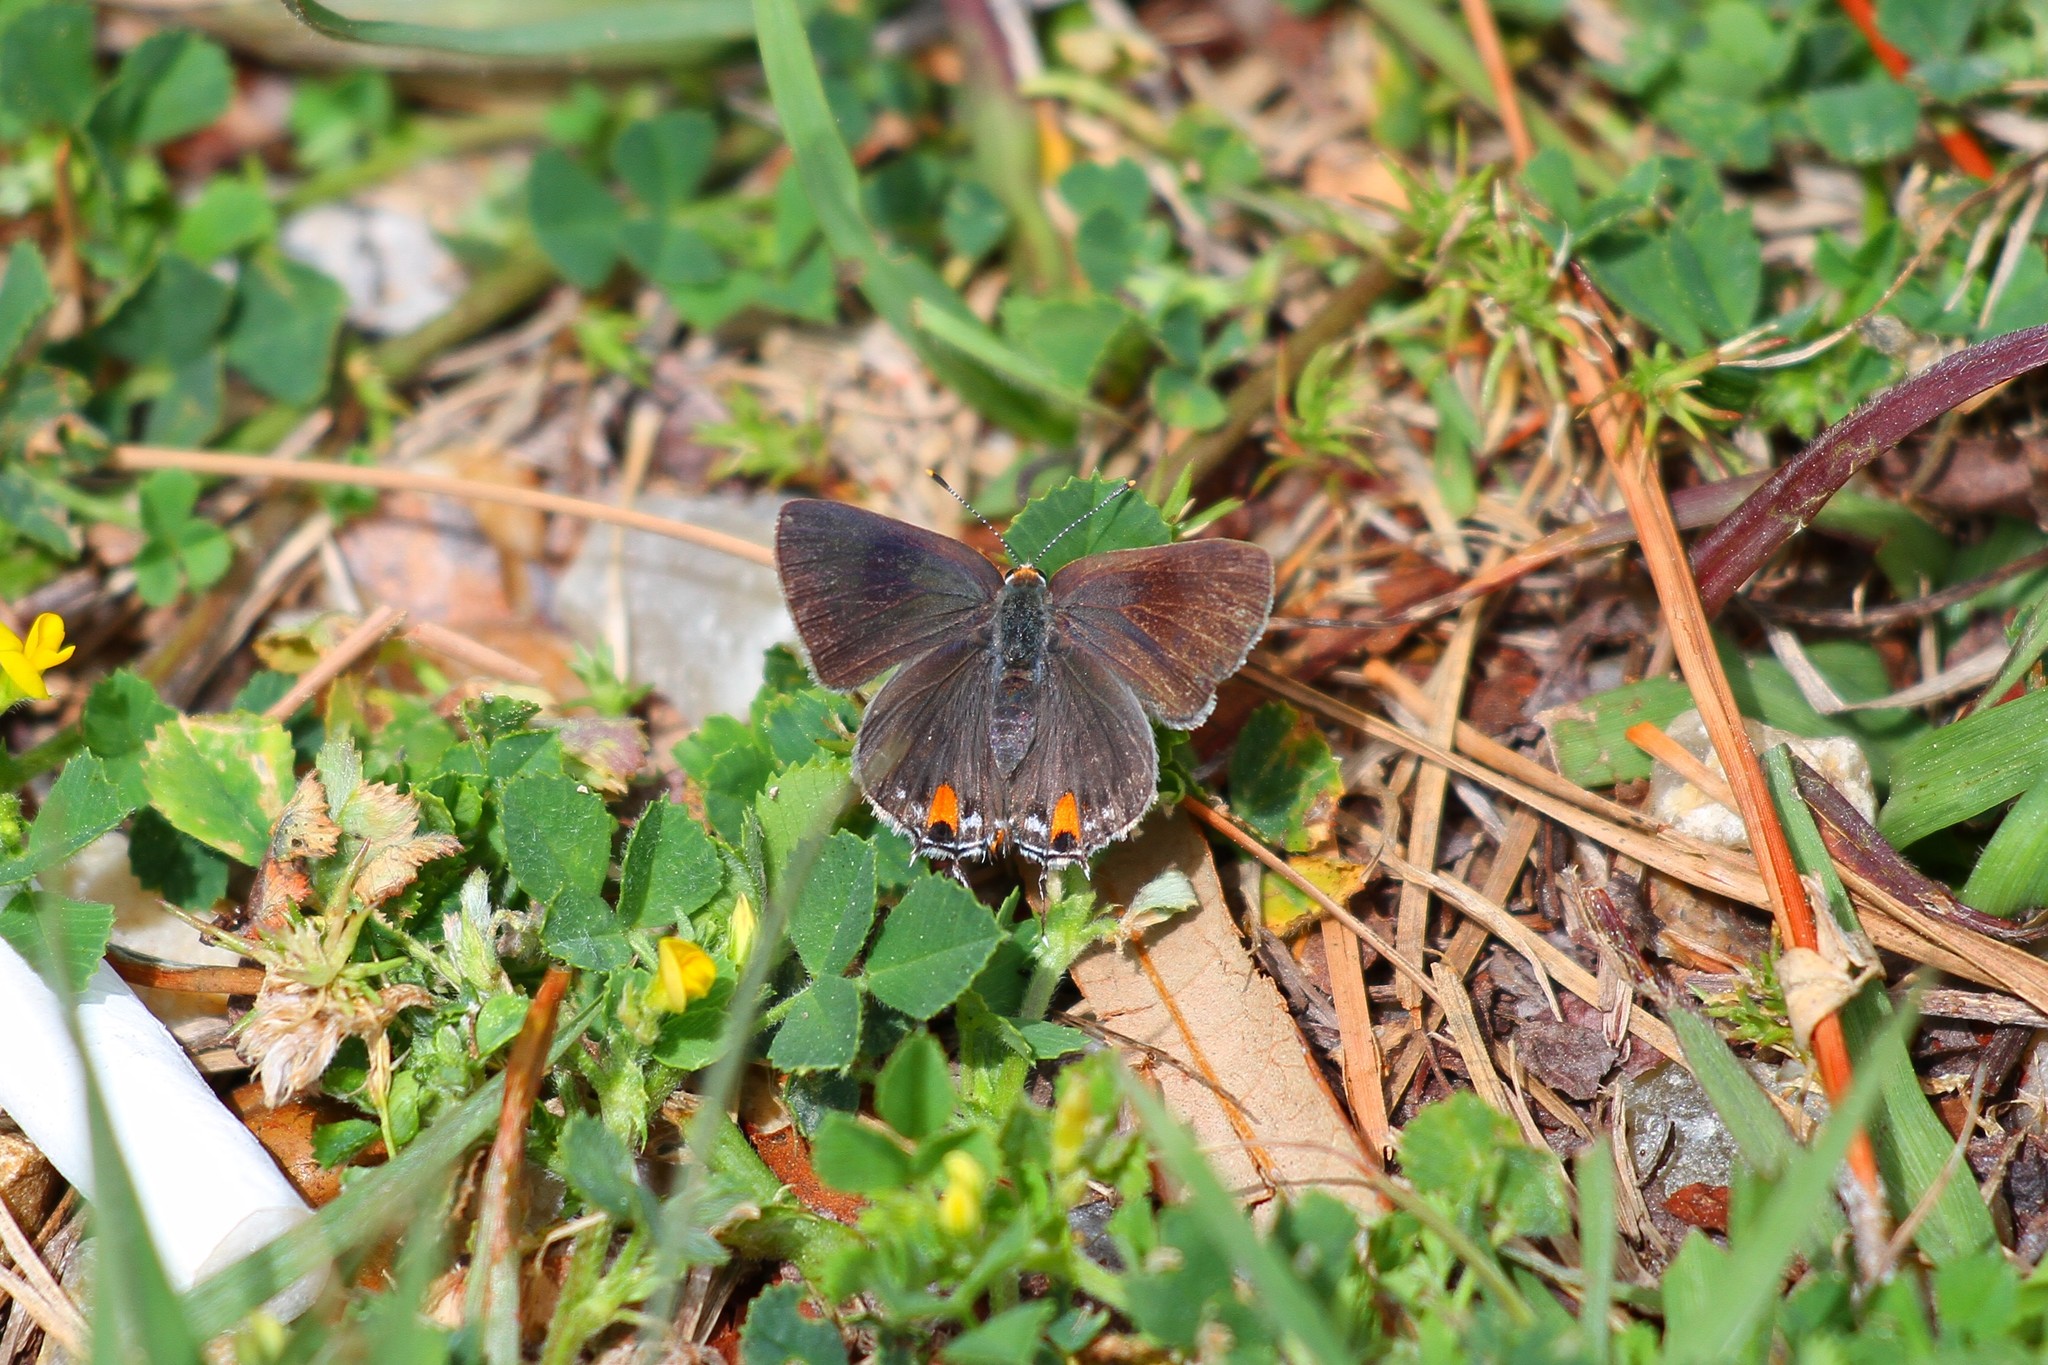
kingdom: Animalia
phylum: Arthropoda
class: Insecta
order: Lepidoptera
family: Lycaenidae
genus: Strymon
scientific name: Strymon melinus
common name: Gray hairstreak
